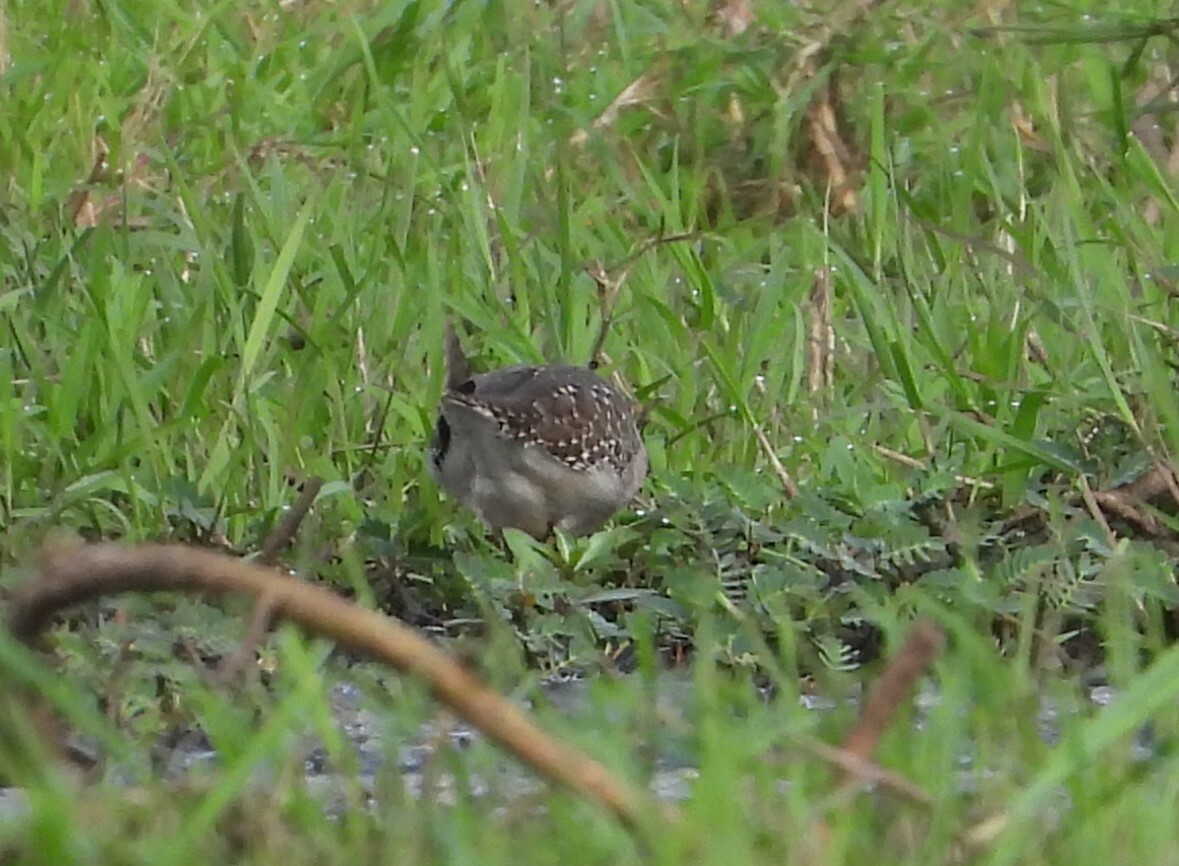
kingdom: Animalia
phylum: Chordata
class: Aves
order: Charadriiformes
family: Scolopacidae
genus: Tringa
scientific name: Tringa ochropus
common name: Green sandpiper
